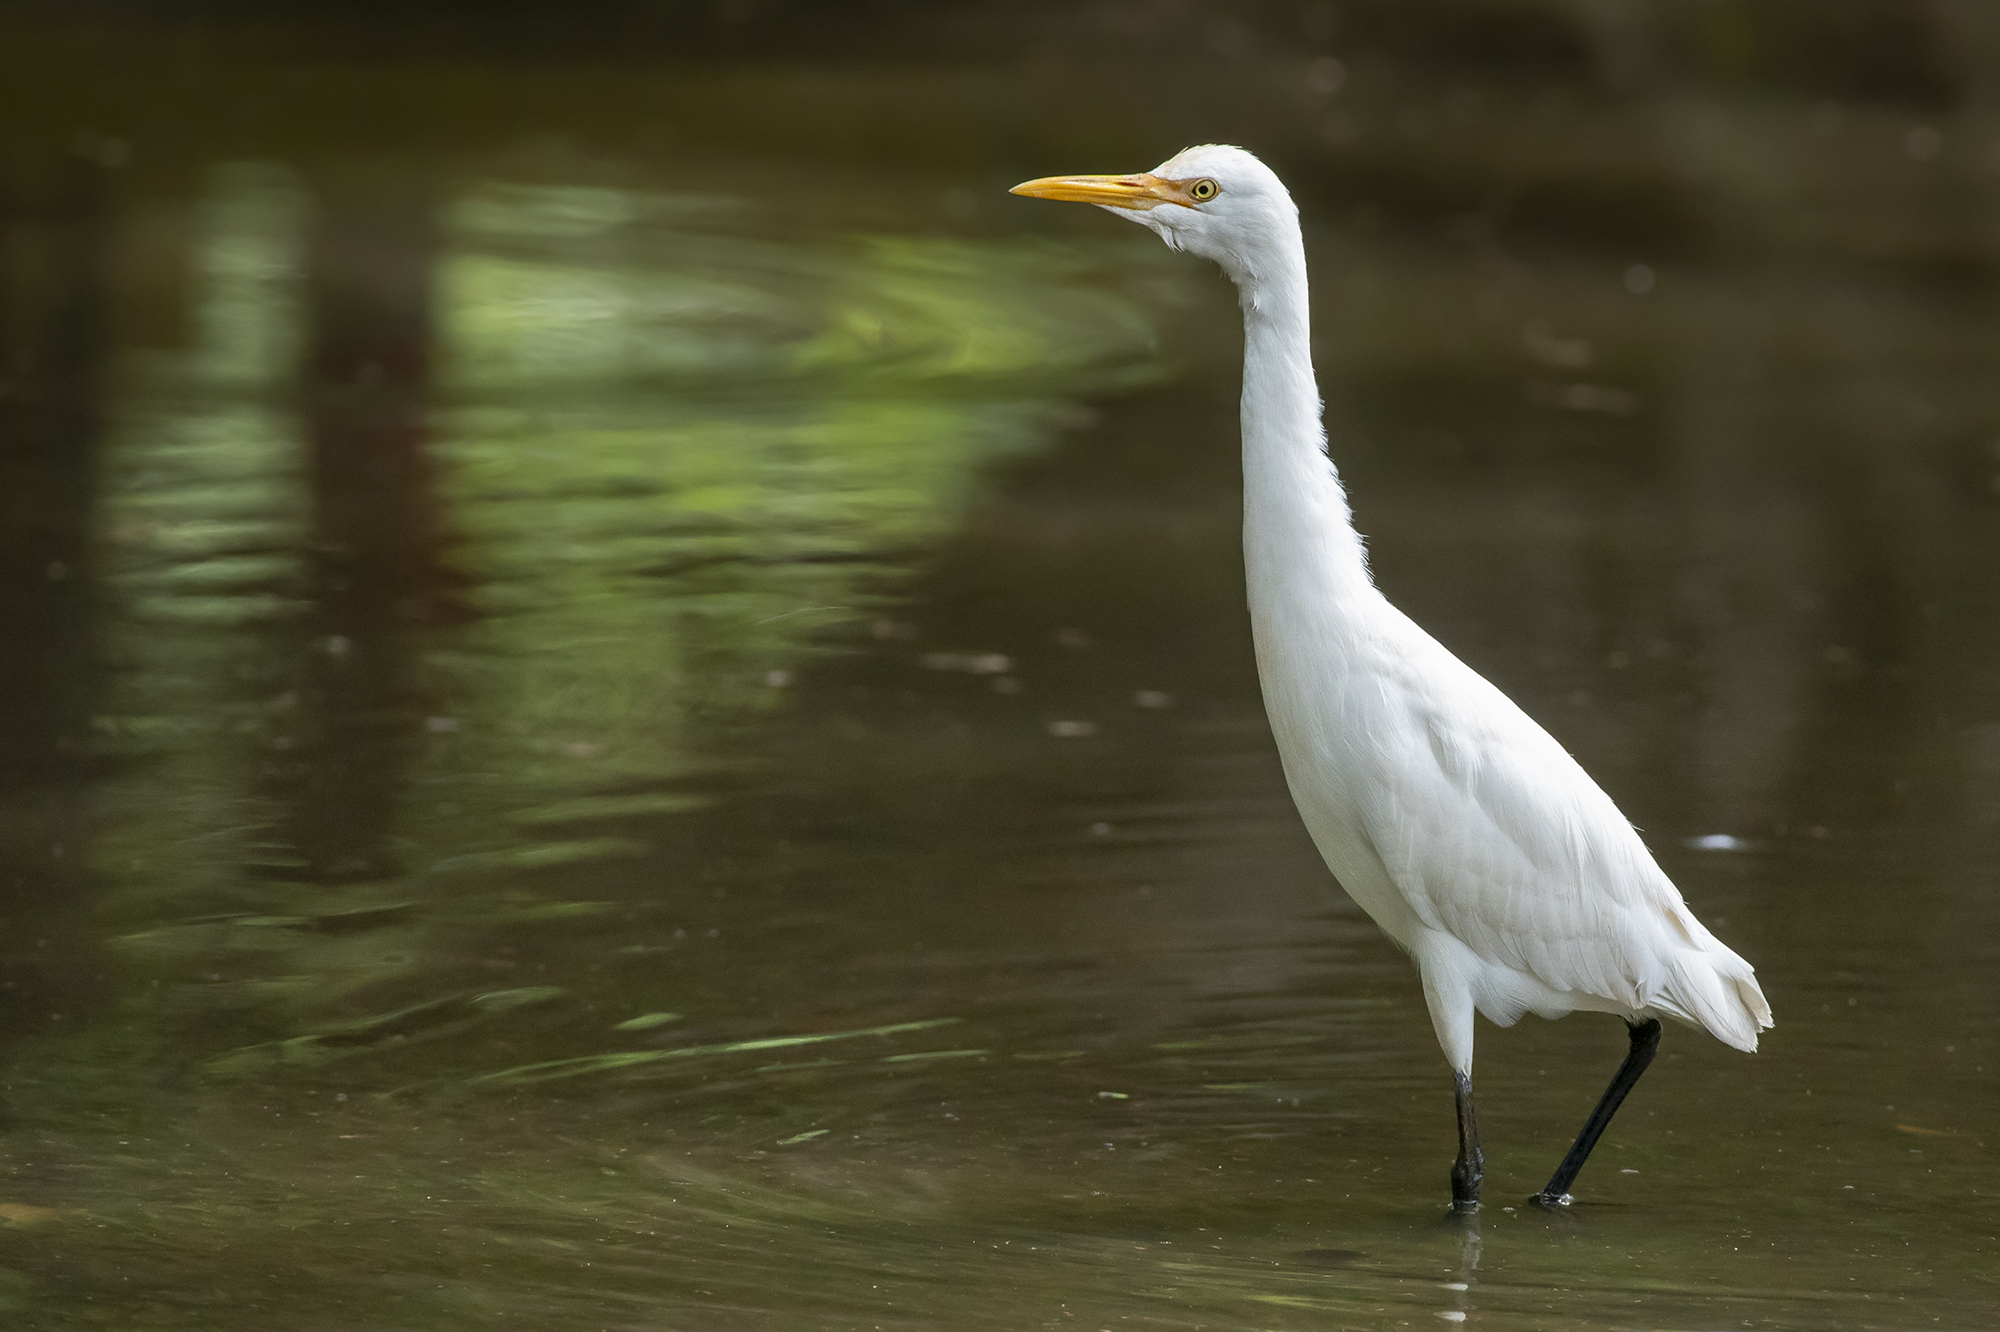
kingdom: Animalia
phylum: Chordata
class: Aves
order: Pelecaniformes
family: Ardeidae
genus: Bubulcus
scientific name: Bubulcus coromandus
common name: Eastern cattle egret
